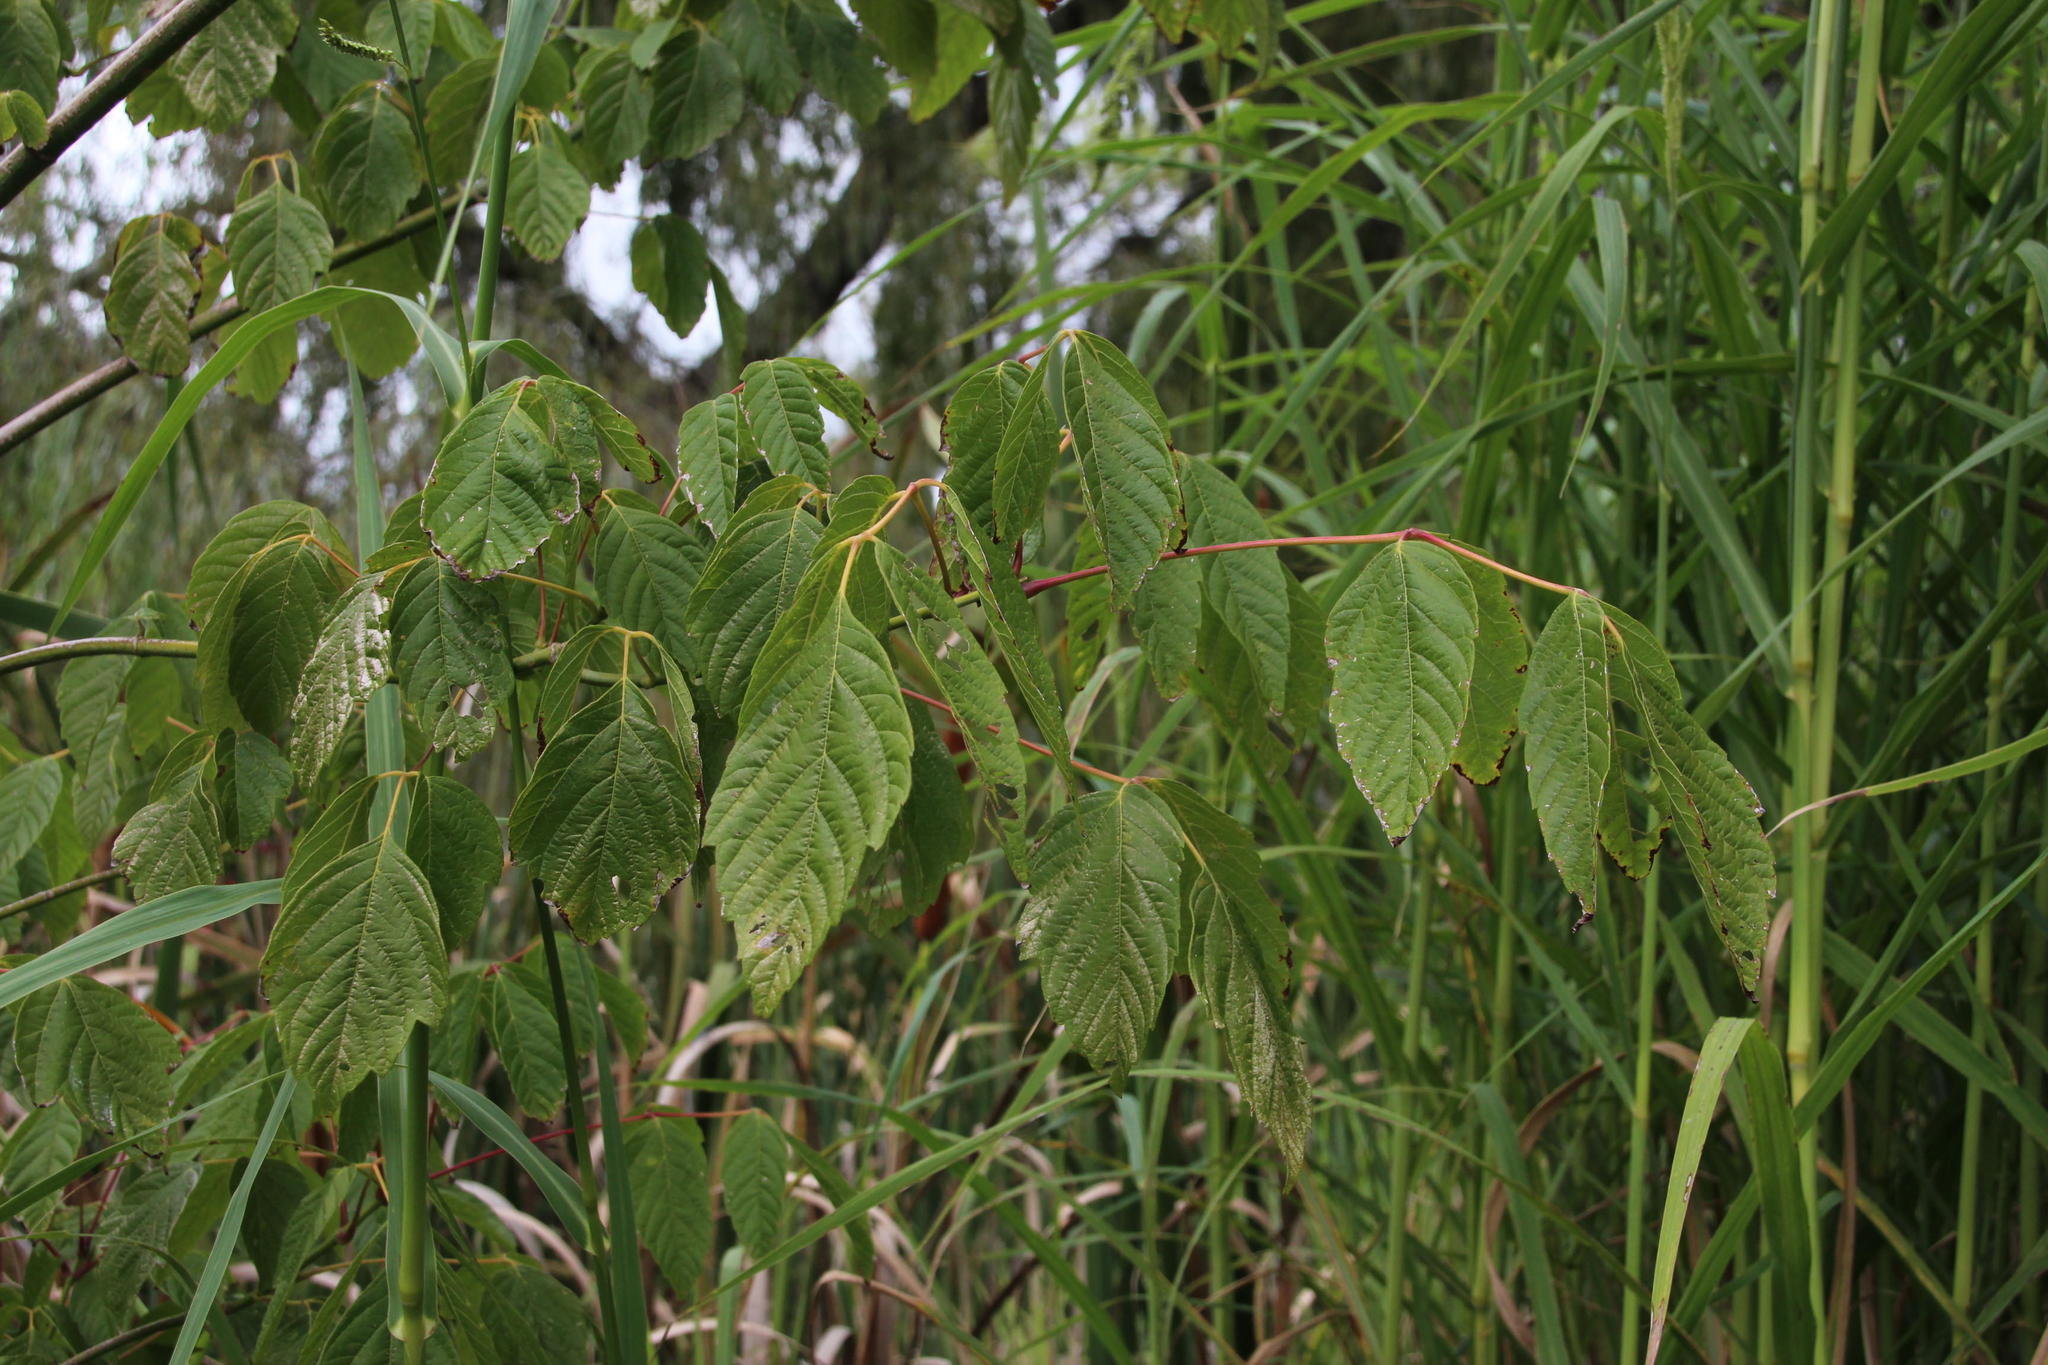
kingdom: Plantae
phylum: Tracheophyta
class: Magnoliopsida
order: Sapindales
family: Sapindaceae
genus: Acer
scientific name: Acer negundo
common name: Ashleaf maple
